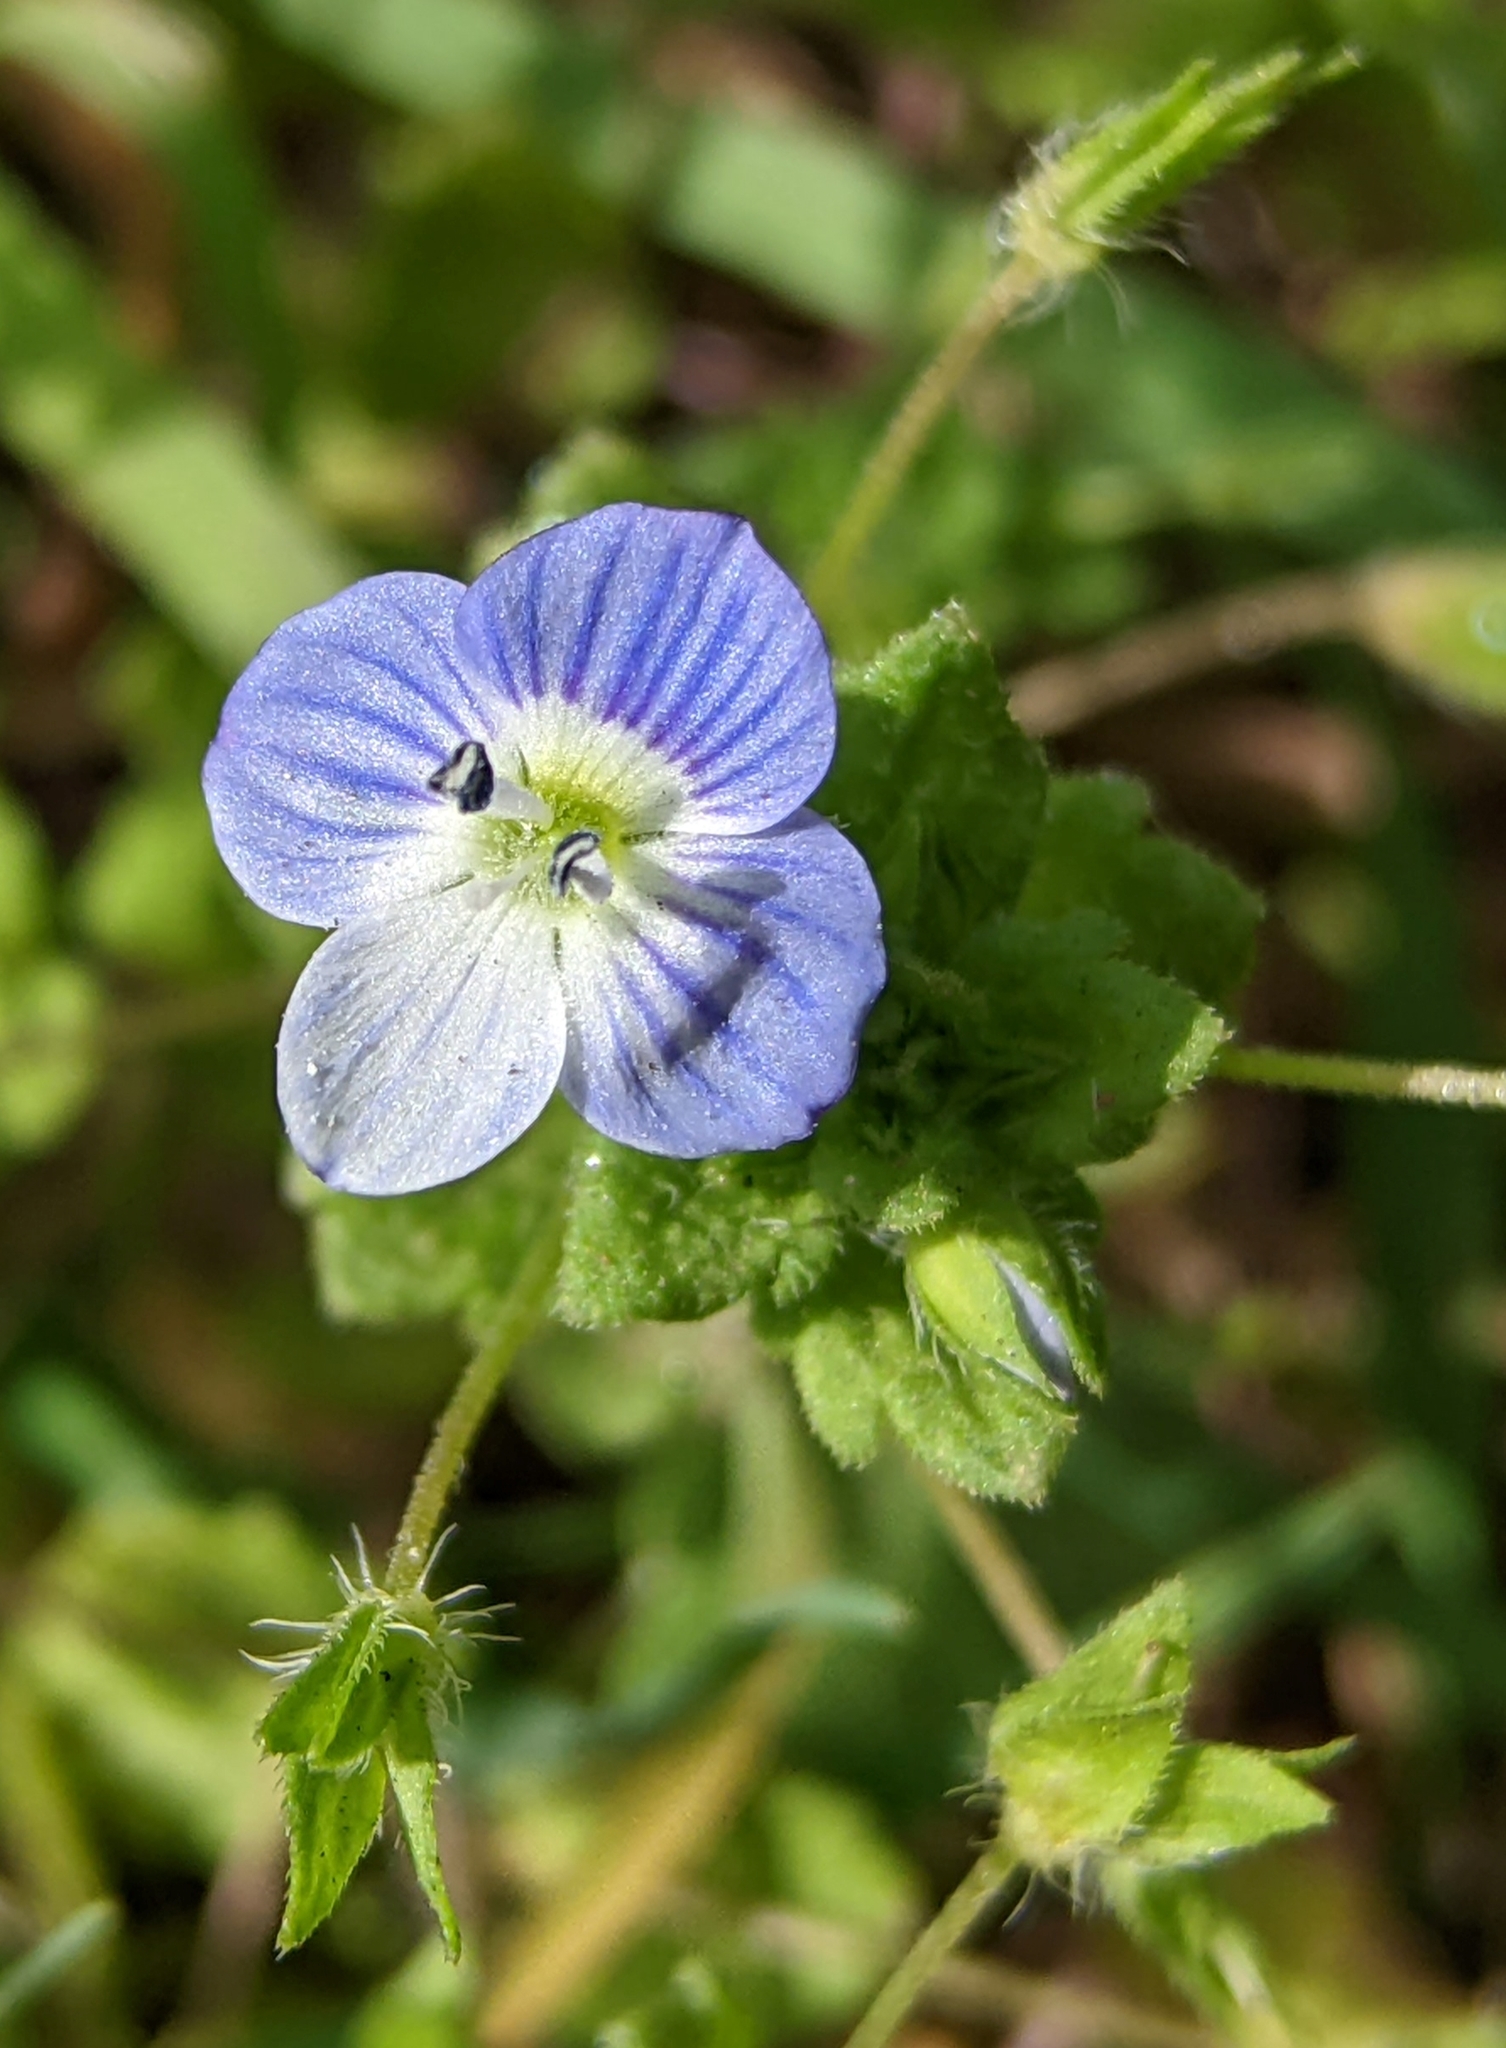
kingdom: Plantae
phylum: Tracheophyta
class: Magnoliopsida
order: Lamiales
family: Plantaginaceae
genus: Veronica
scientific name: Veronica persica
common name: Common field-speedwell
